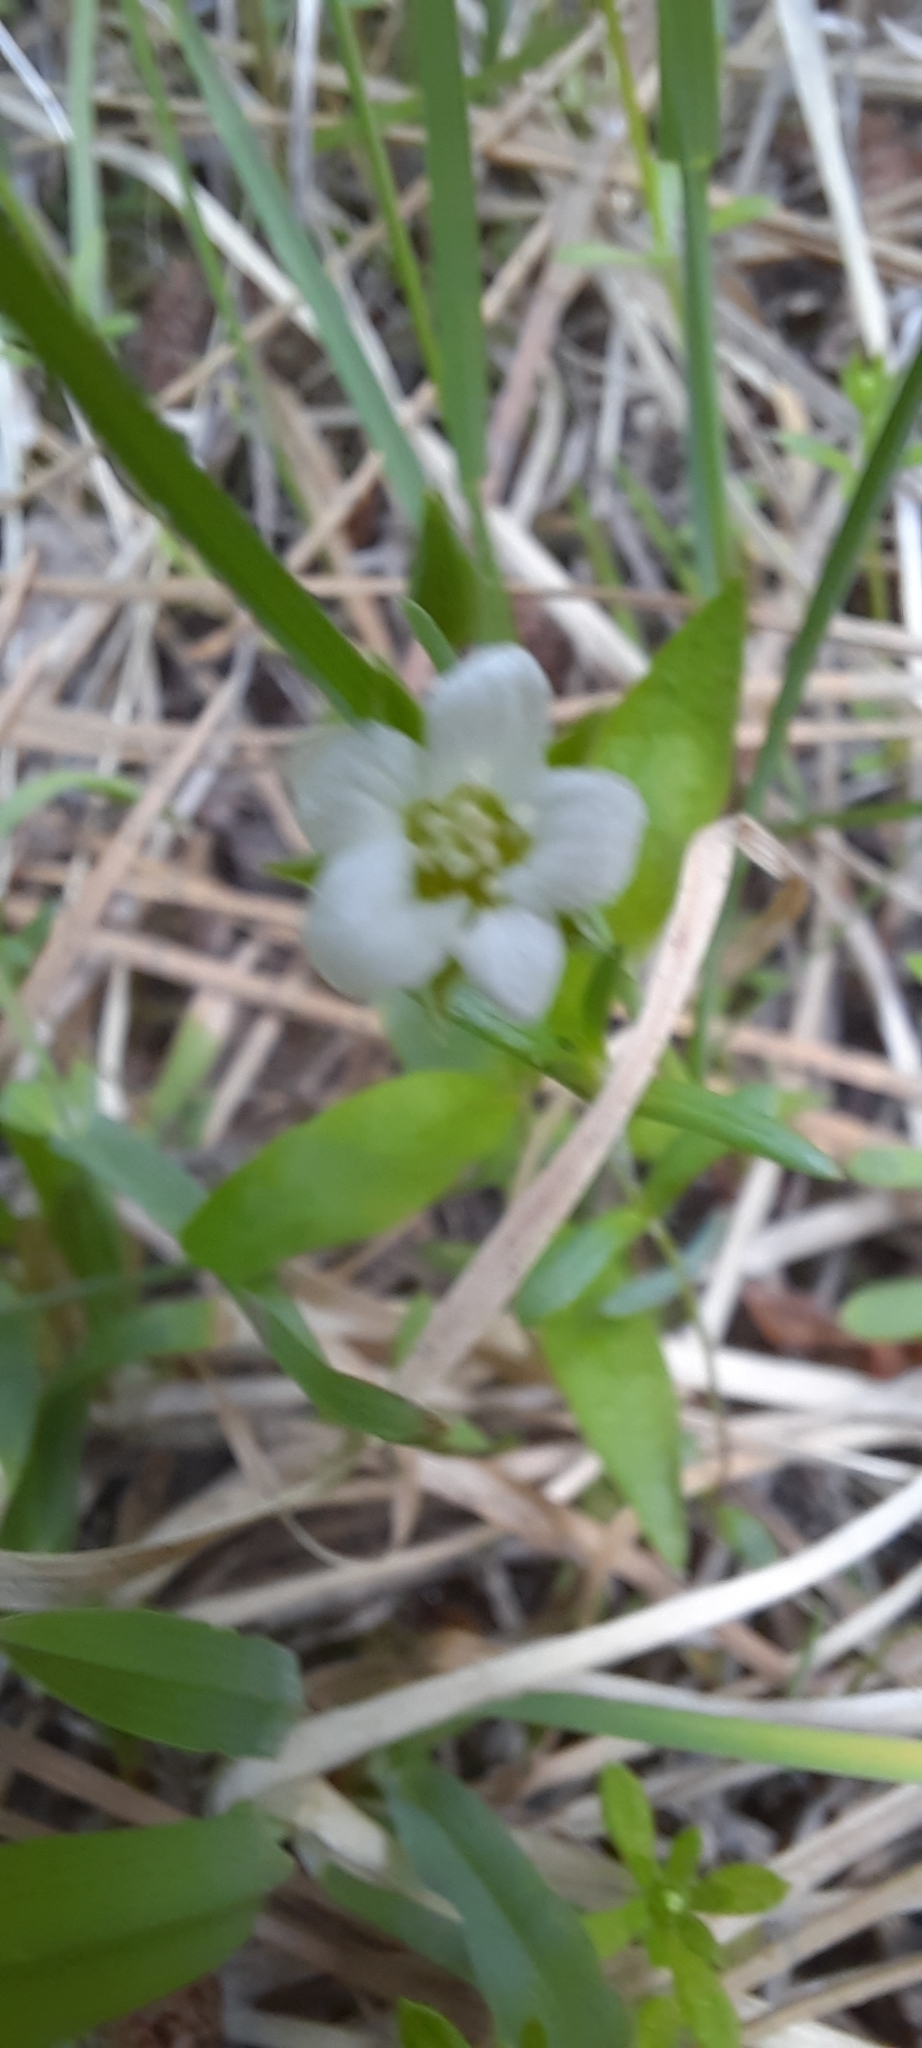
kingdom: Plantae
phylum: Tracheophyta
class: Magnoliopsida
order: Caryophyllales
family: Caryophyllaceae
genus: Moehringia
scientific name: Moehringia macrophylla
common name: Big-leaf sandwort
